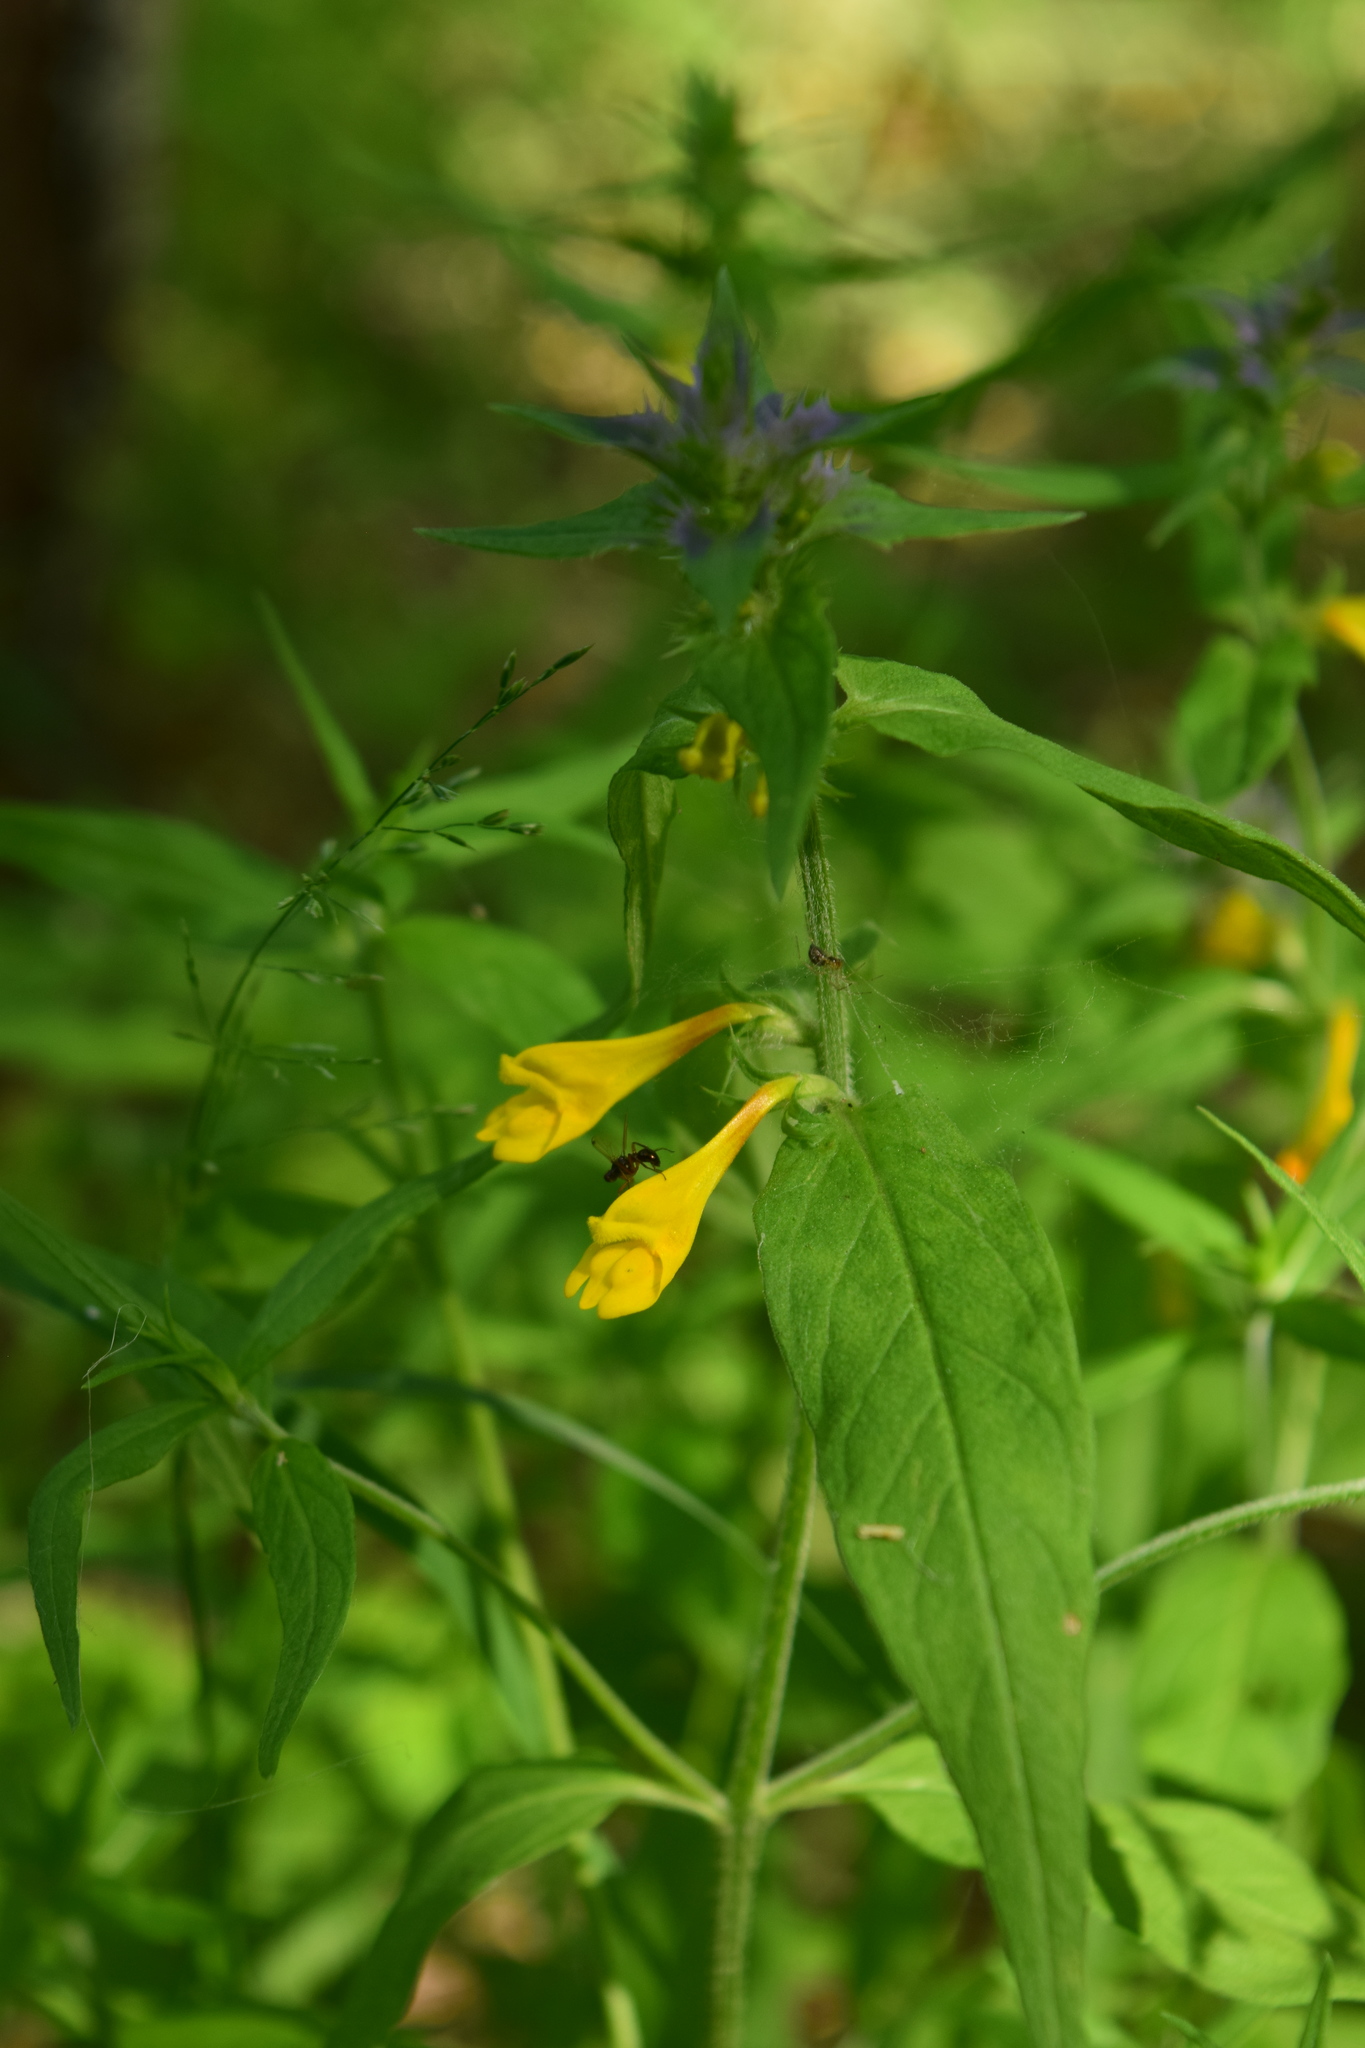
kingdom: Plantae
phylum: Tracheophyta
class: Magnoliopsida
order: Lamiales
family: Orobanchaceae
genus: Melampyrum
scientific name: Melampyrum nemorosum
